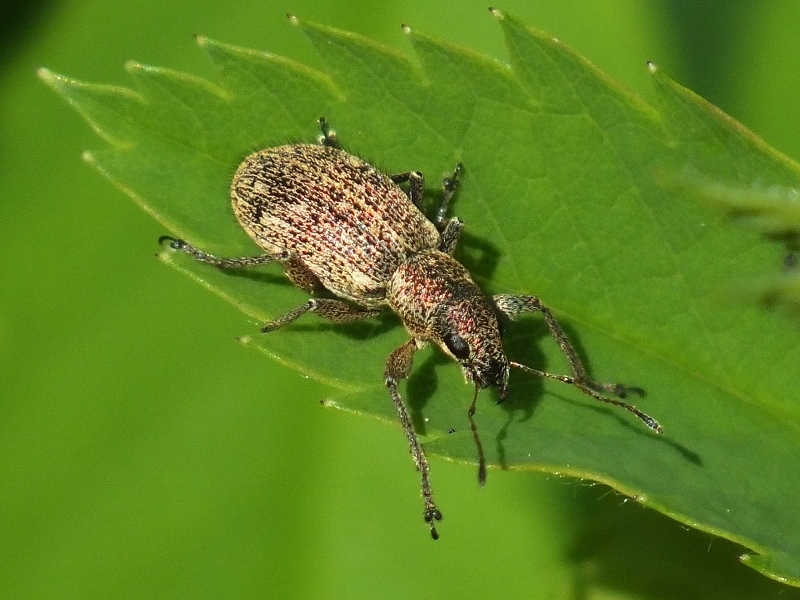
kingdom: Animalia
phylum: Arthropoda
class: Insecta
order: Coleoptera
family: Curculionidae
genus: Polydrusus
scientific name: Polydrusus inustus
